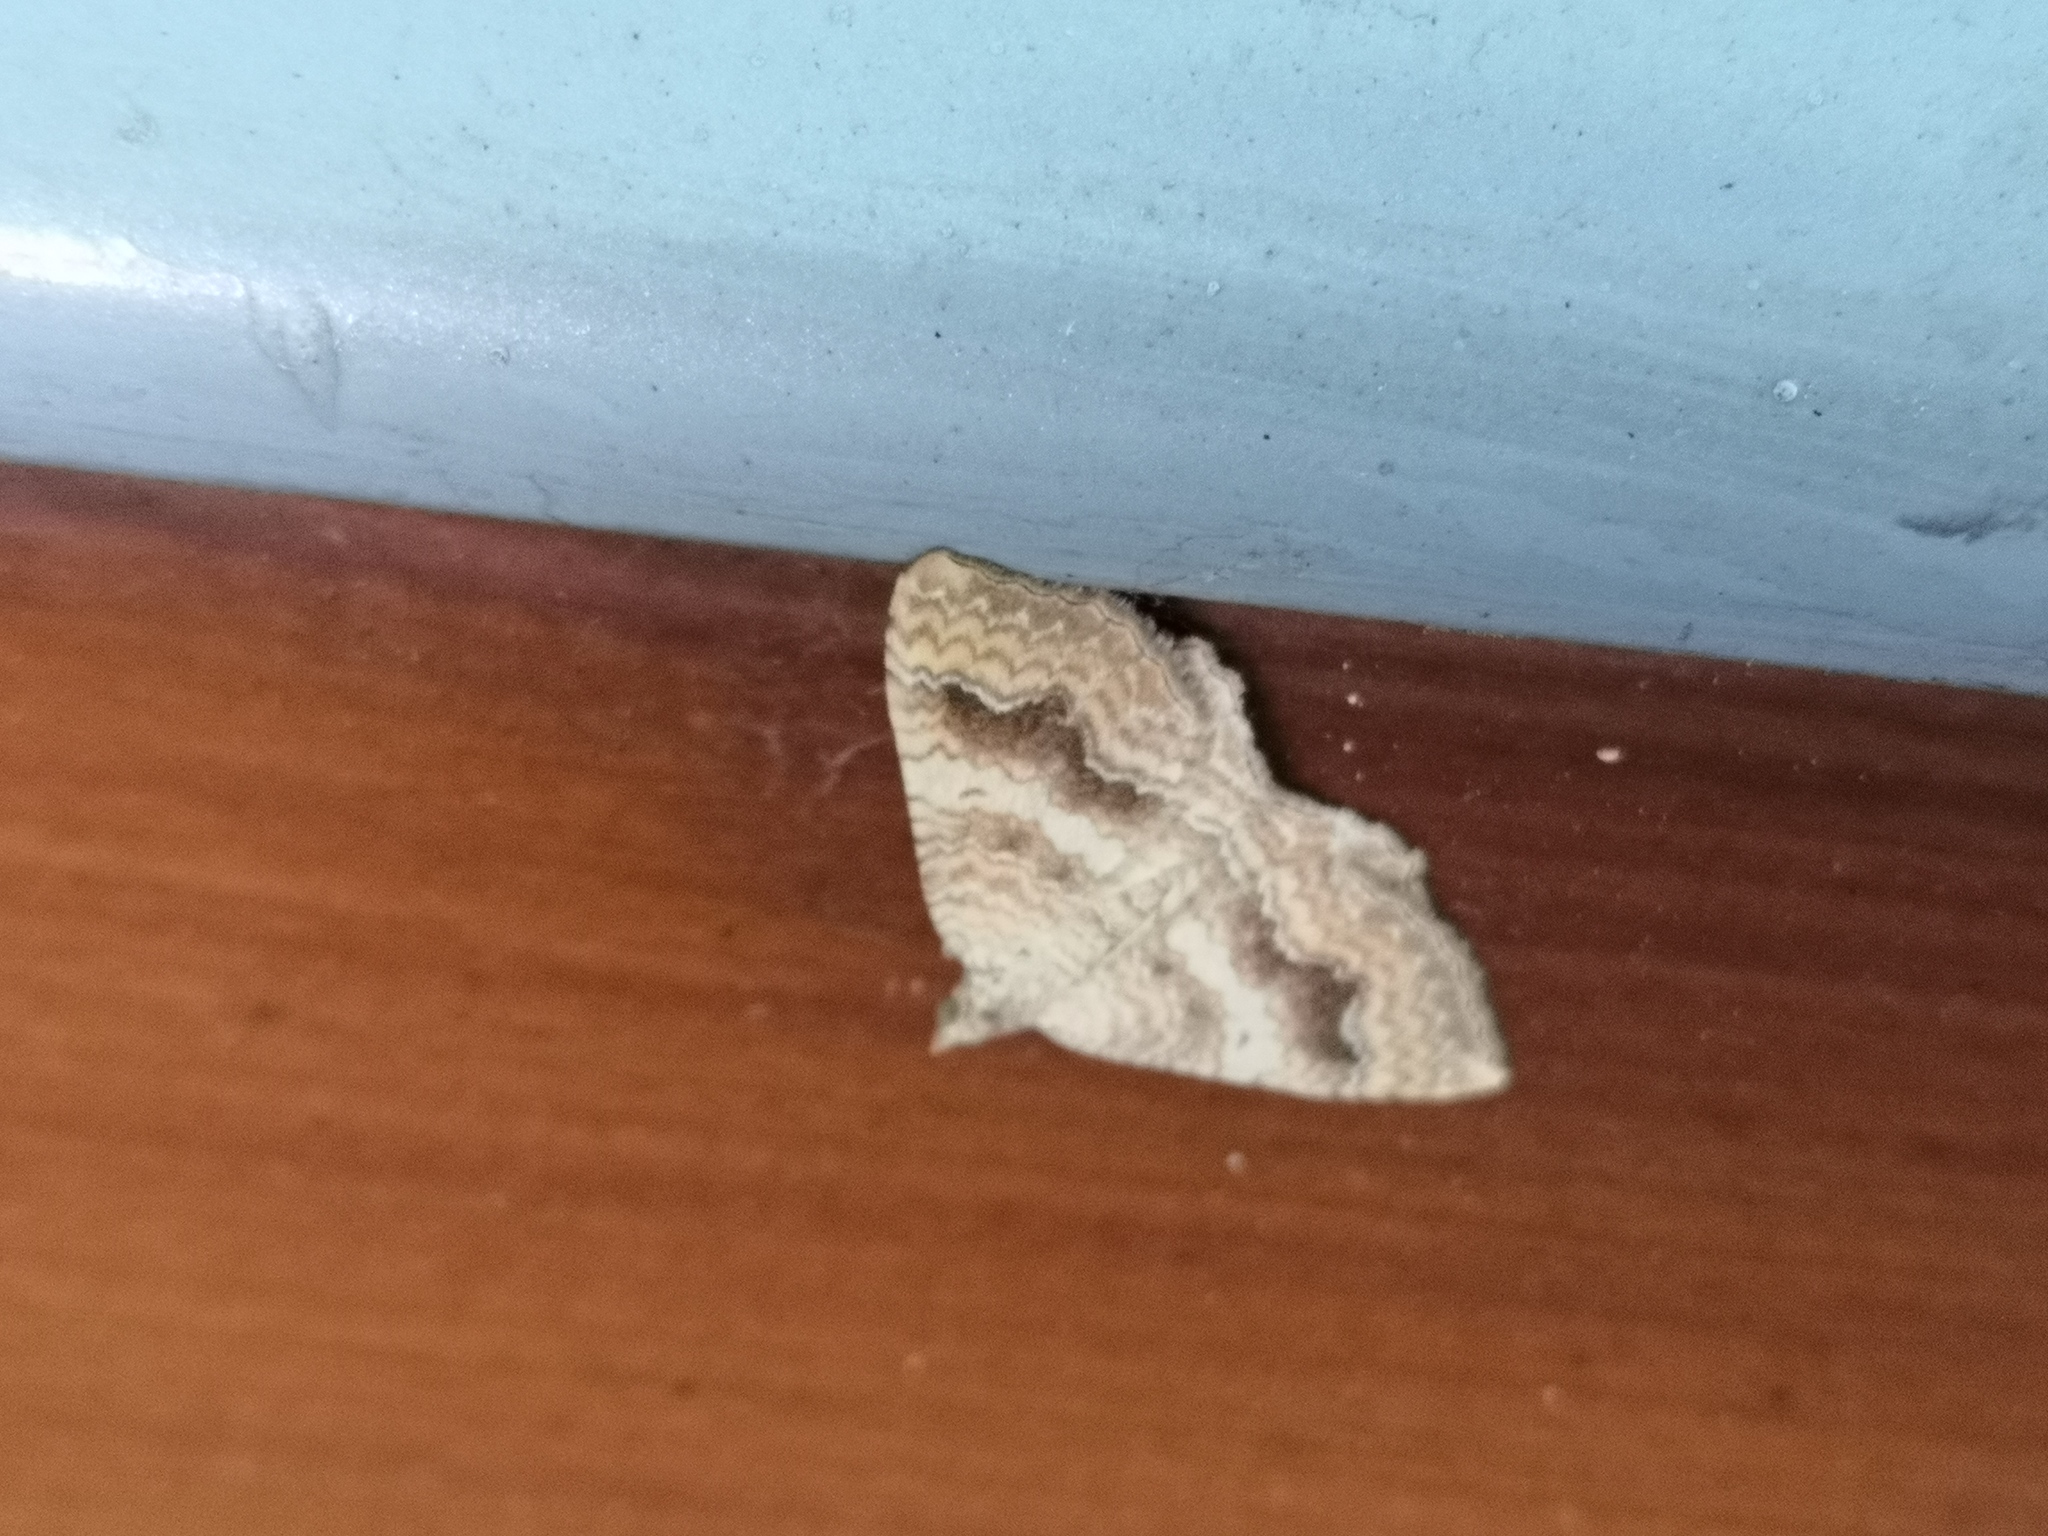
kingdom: Animalia
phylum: Arthropoda
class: Insecta
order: Lepidoptera
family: Geometridae
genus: Camptogramma
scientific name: Camptogramma bilineata
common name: Yellow shell
